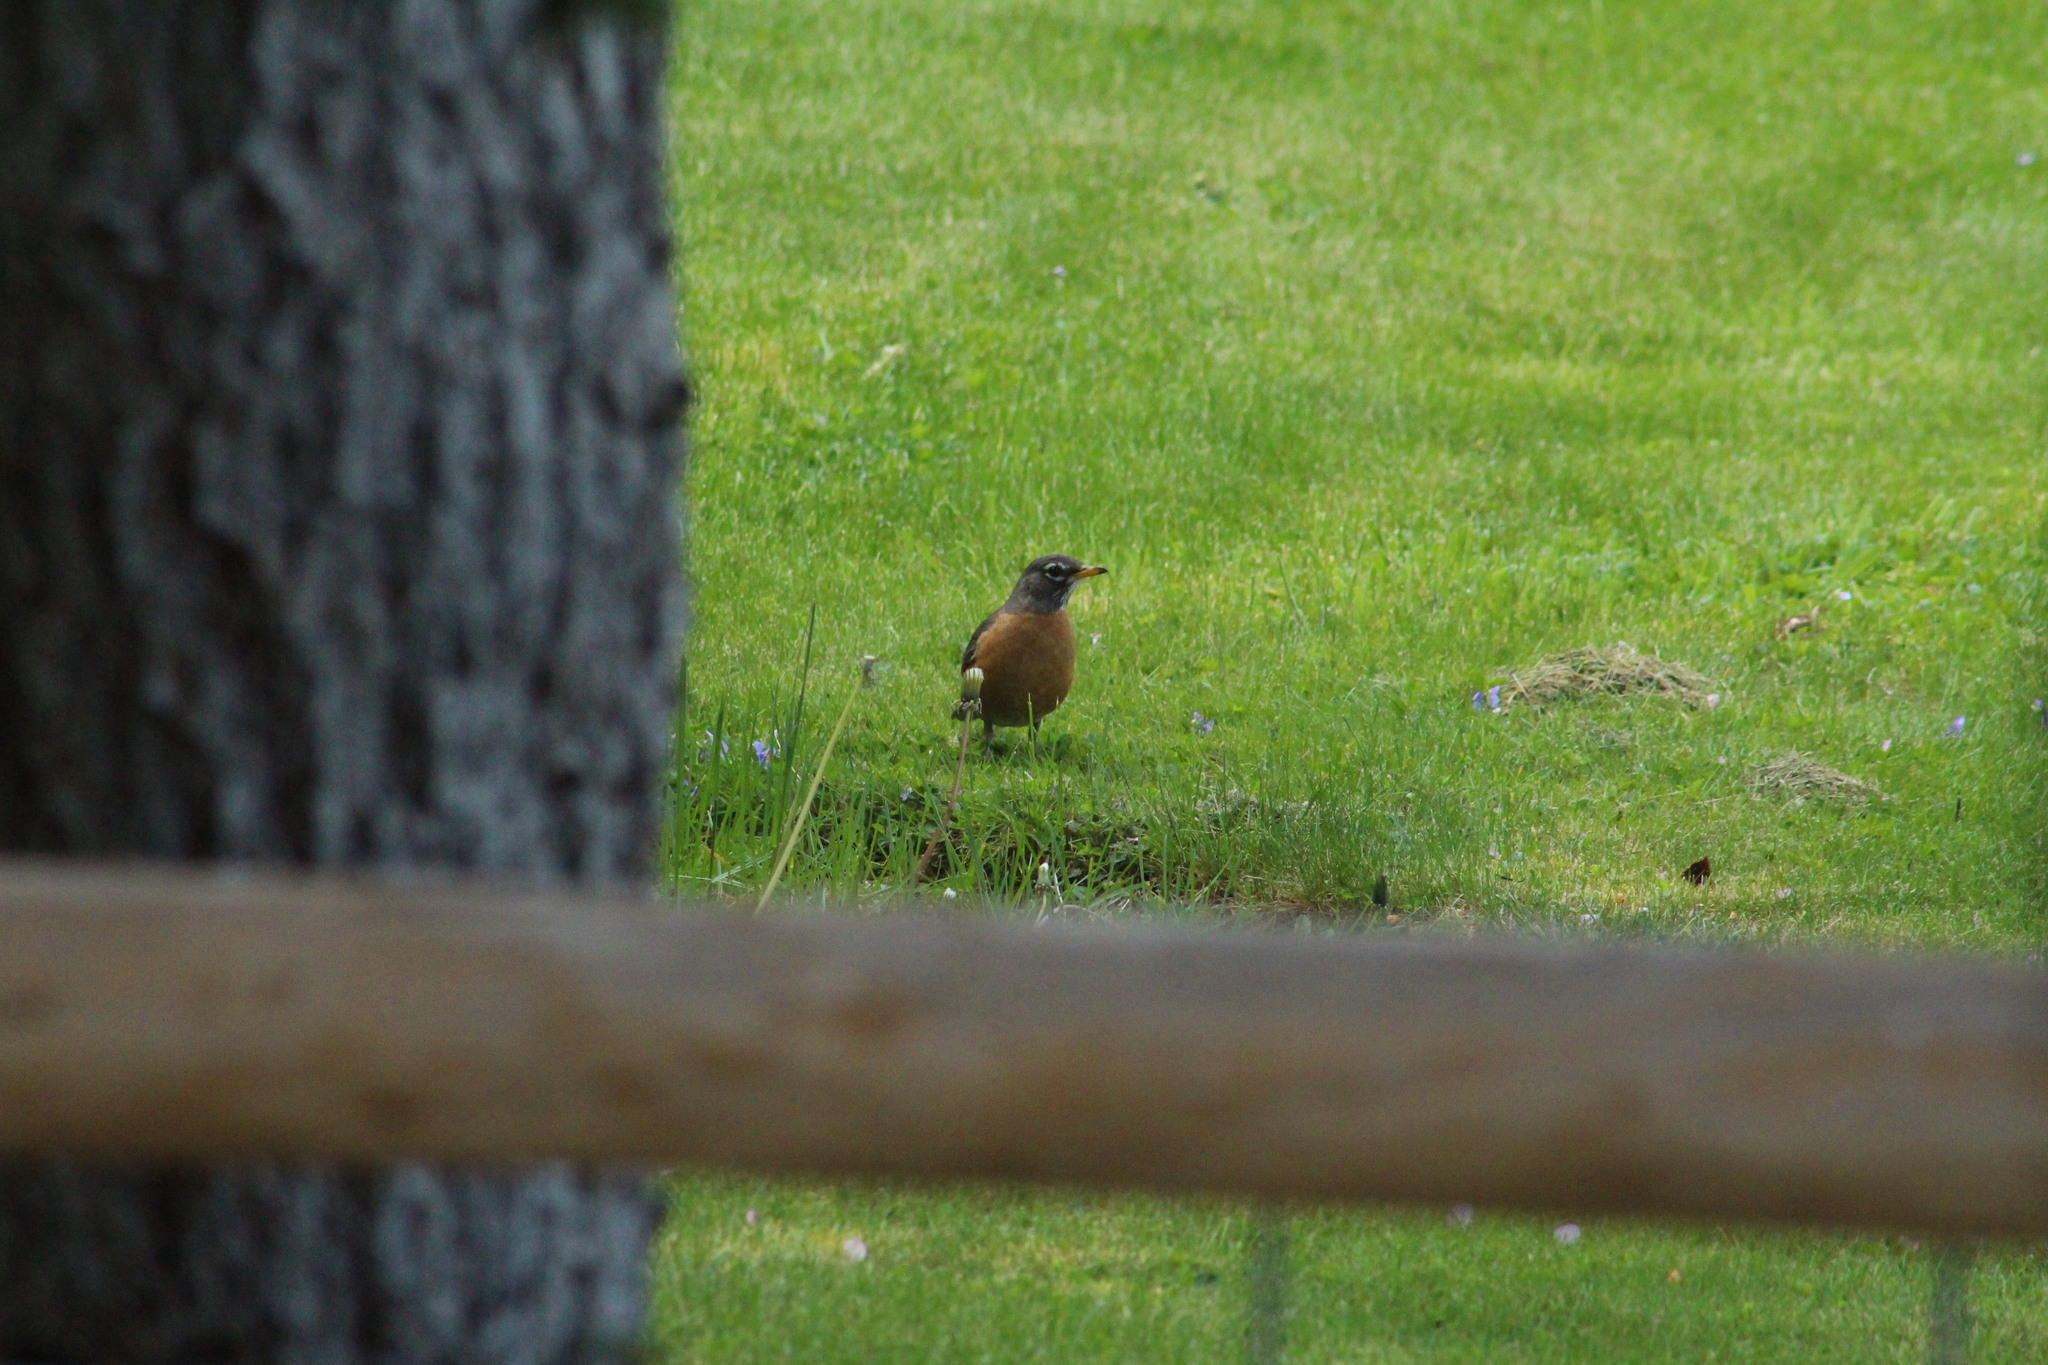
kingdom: Animalia
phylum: Chordata
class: Aves
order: Passeriformes
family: Turdidae
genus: Turdus
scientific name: Turdus migratorius
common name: American robin
